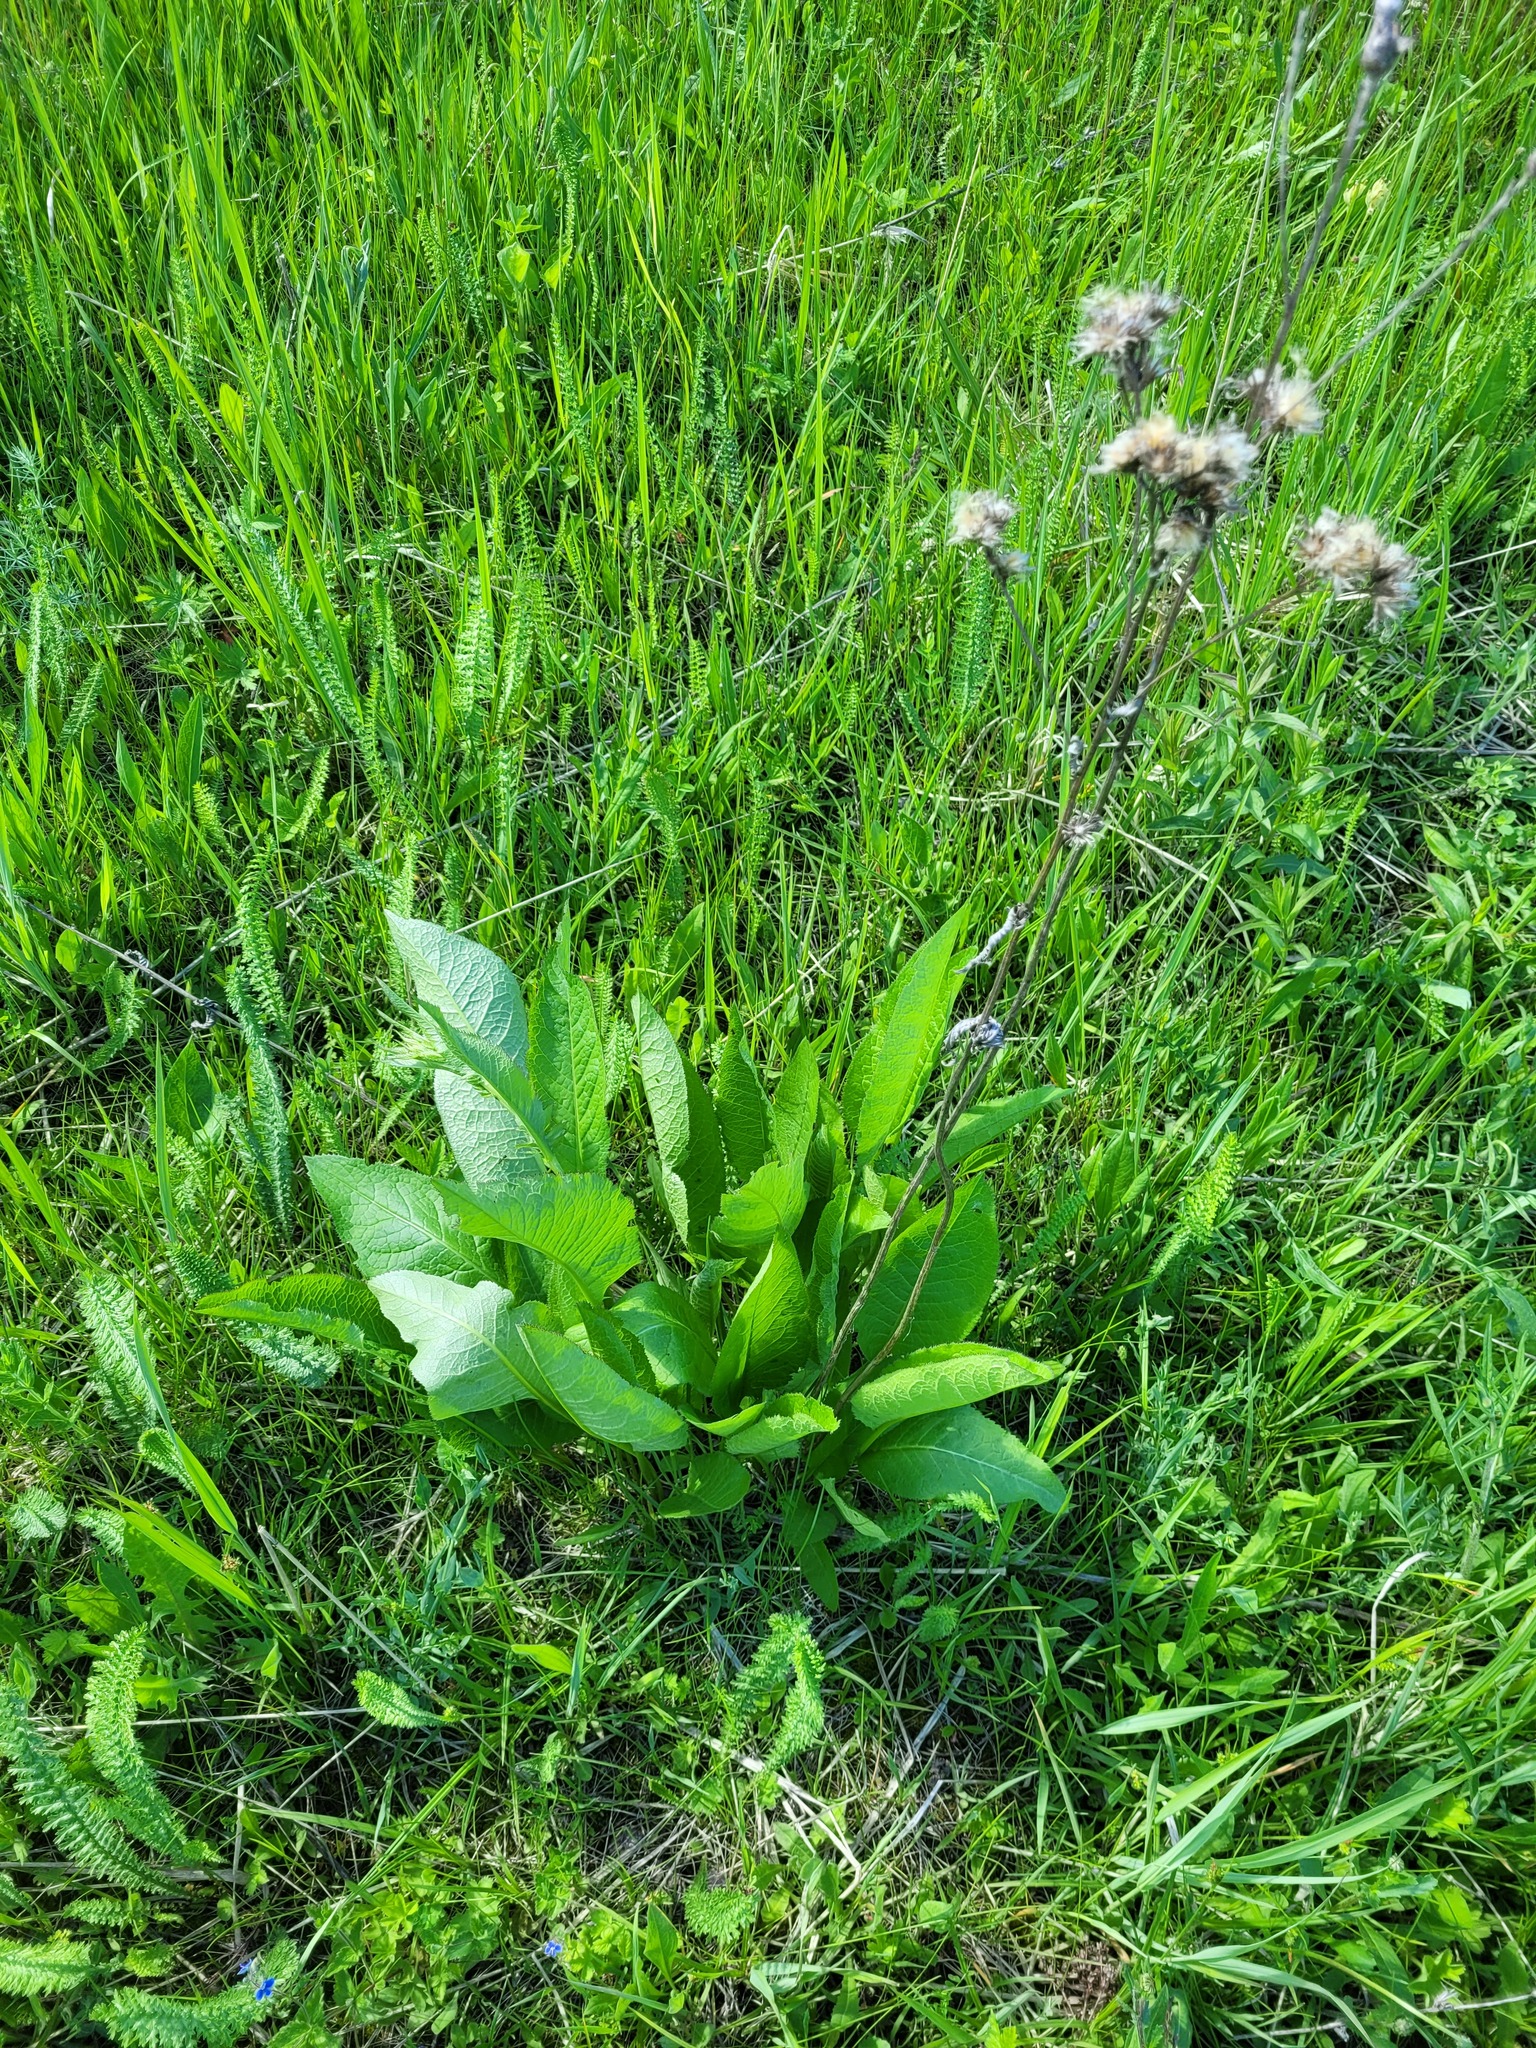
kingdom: Plantae
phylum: Tracheophyta
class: Magnoliopsida
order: Asterales
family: Asteraceae
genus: Serratula
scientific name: Serratula tinctoria
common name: Saw-wort
